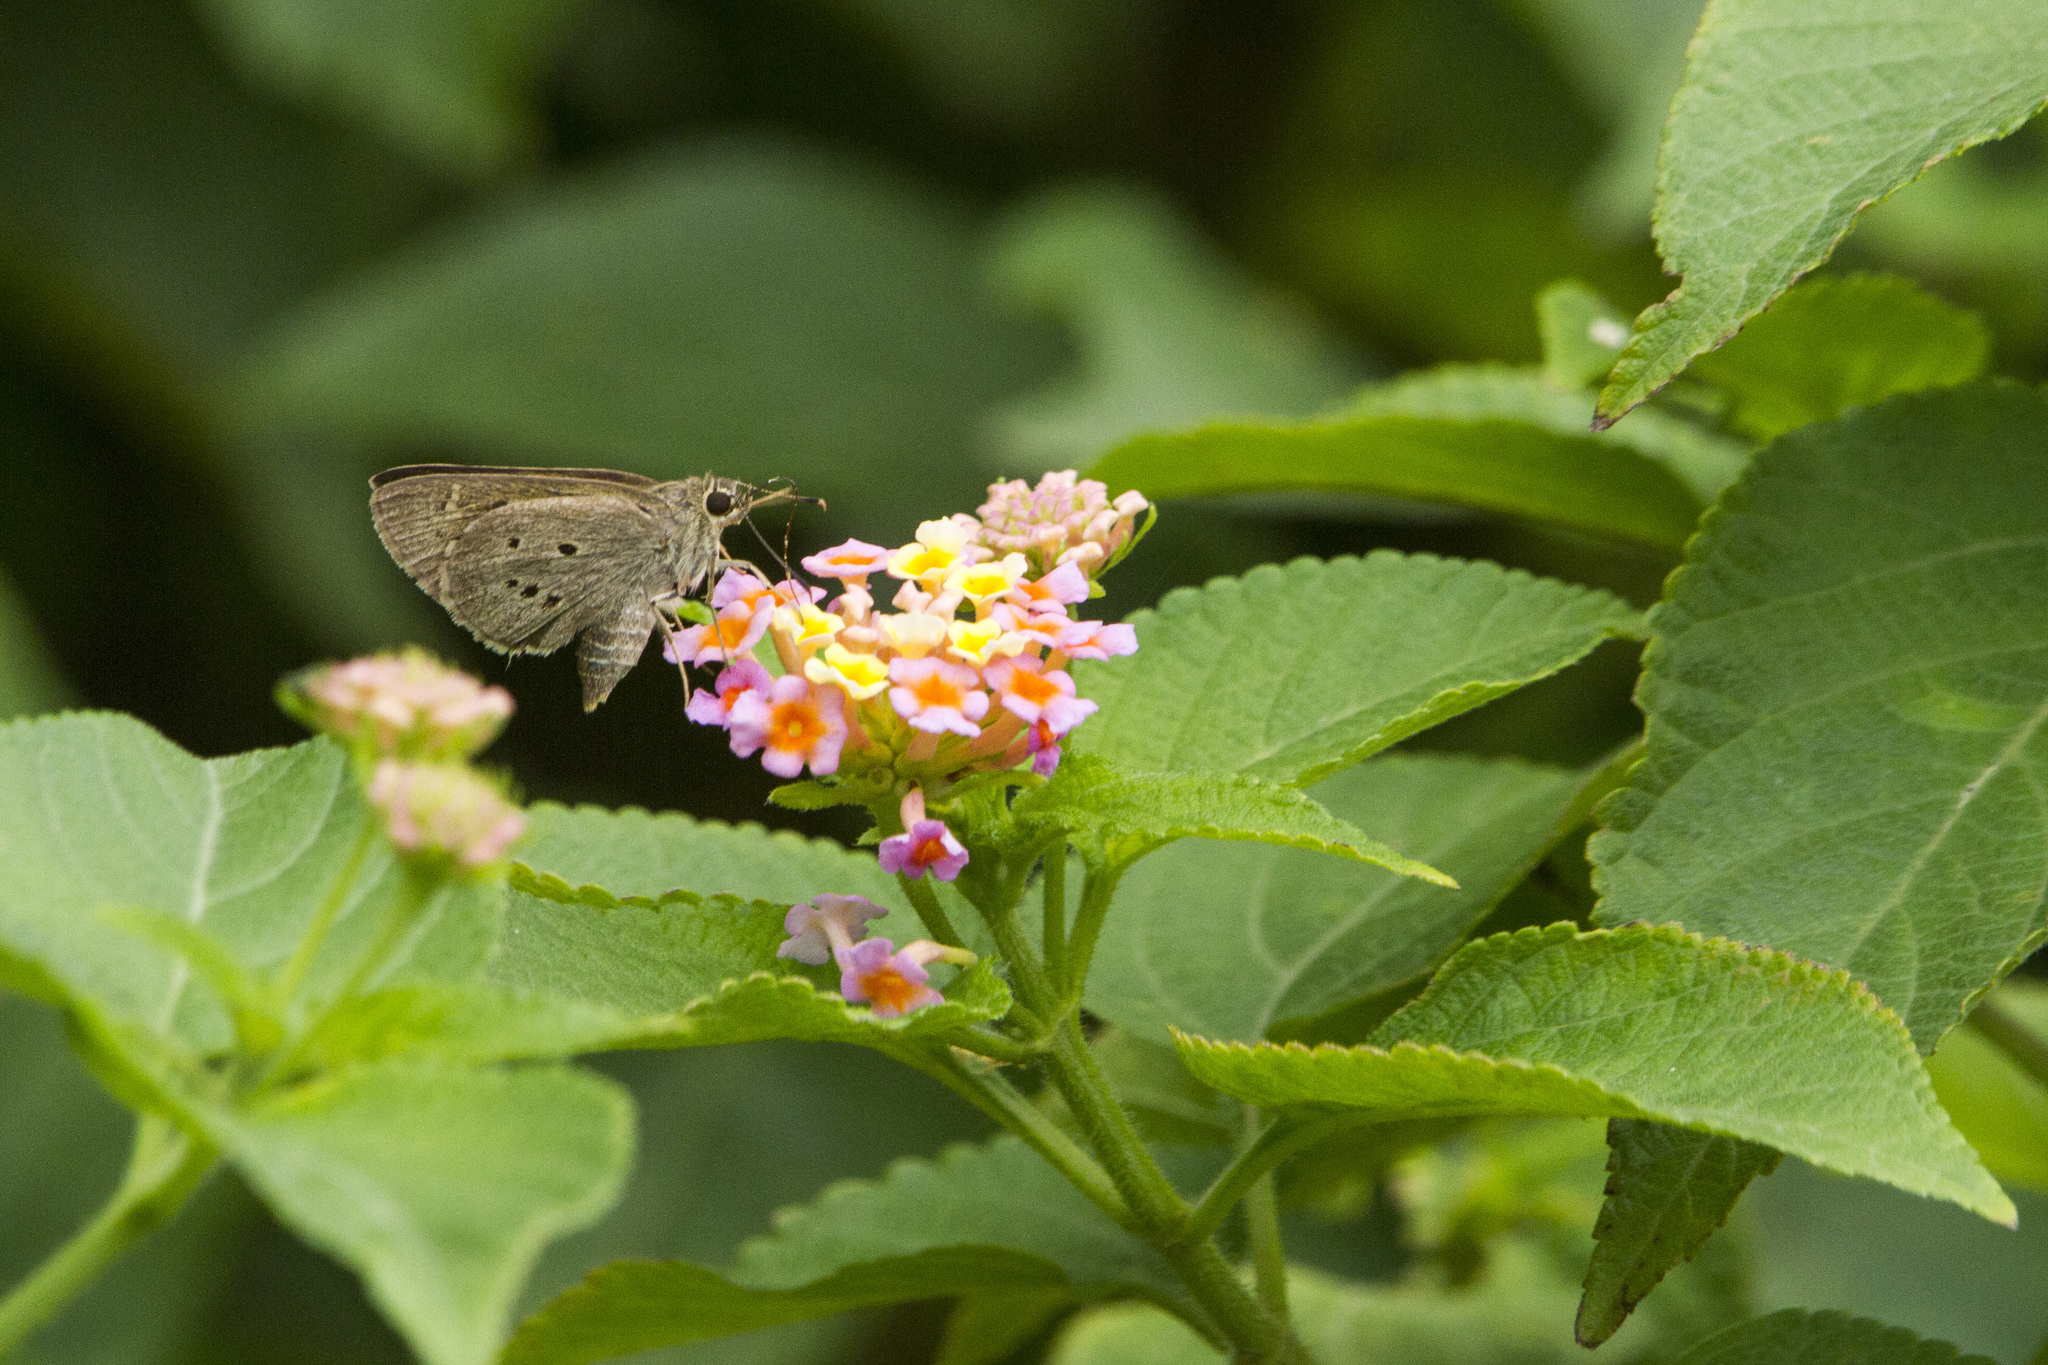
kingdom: Animalia
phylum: Arthropoda
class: Insecta
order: Lepidoptera
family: Hesperiidae
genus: Suastus
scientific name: Suastus gremius
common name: Indian palm bob
